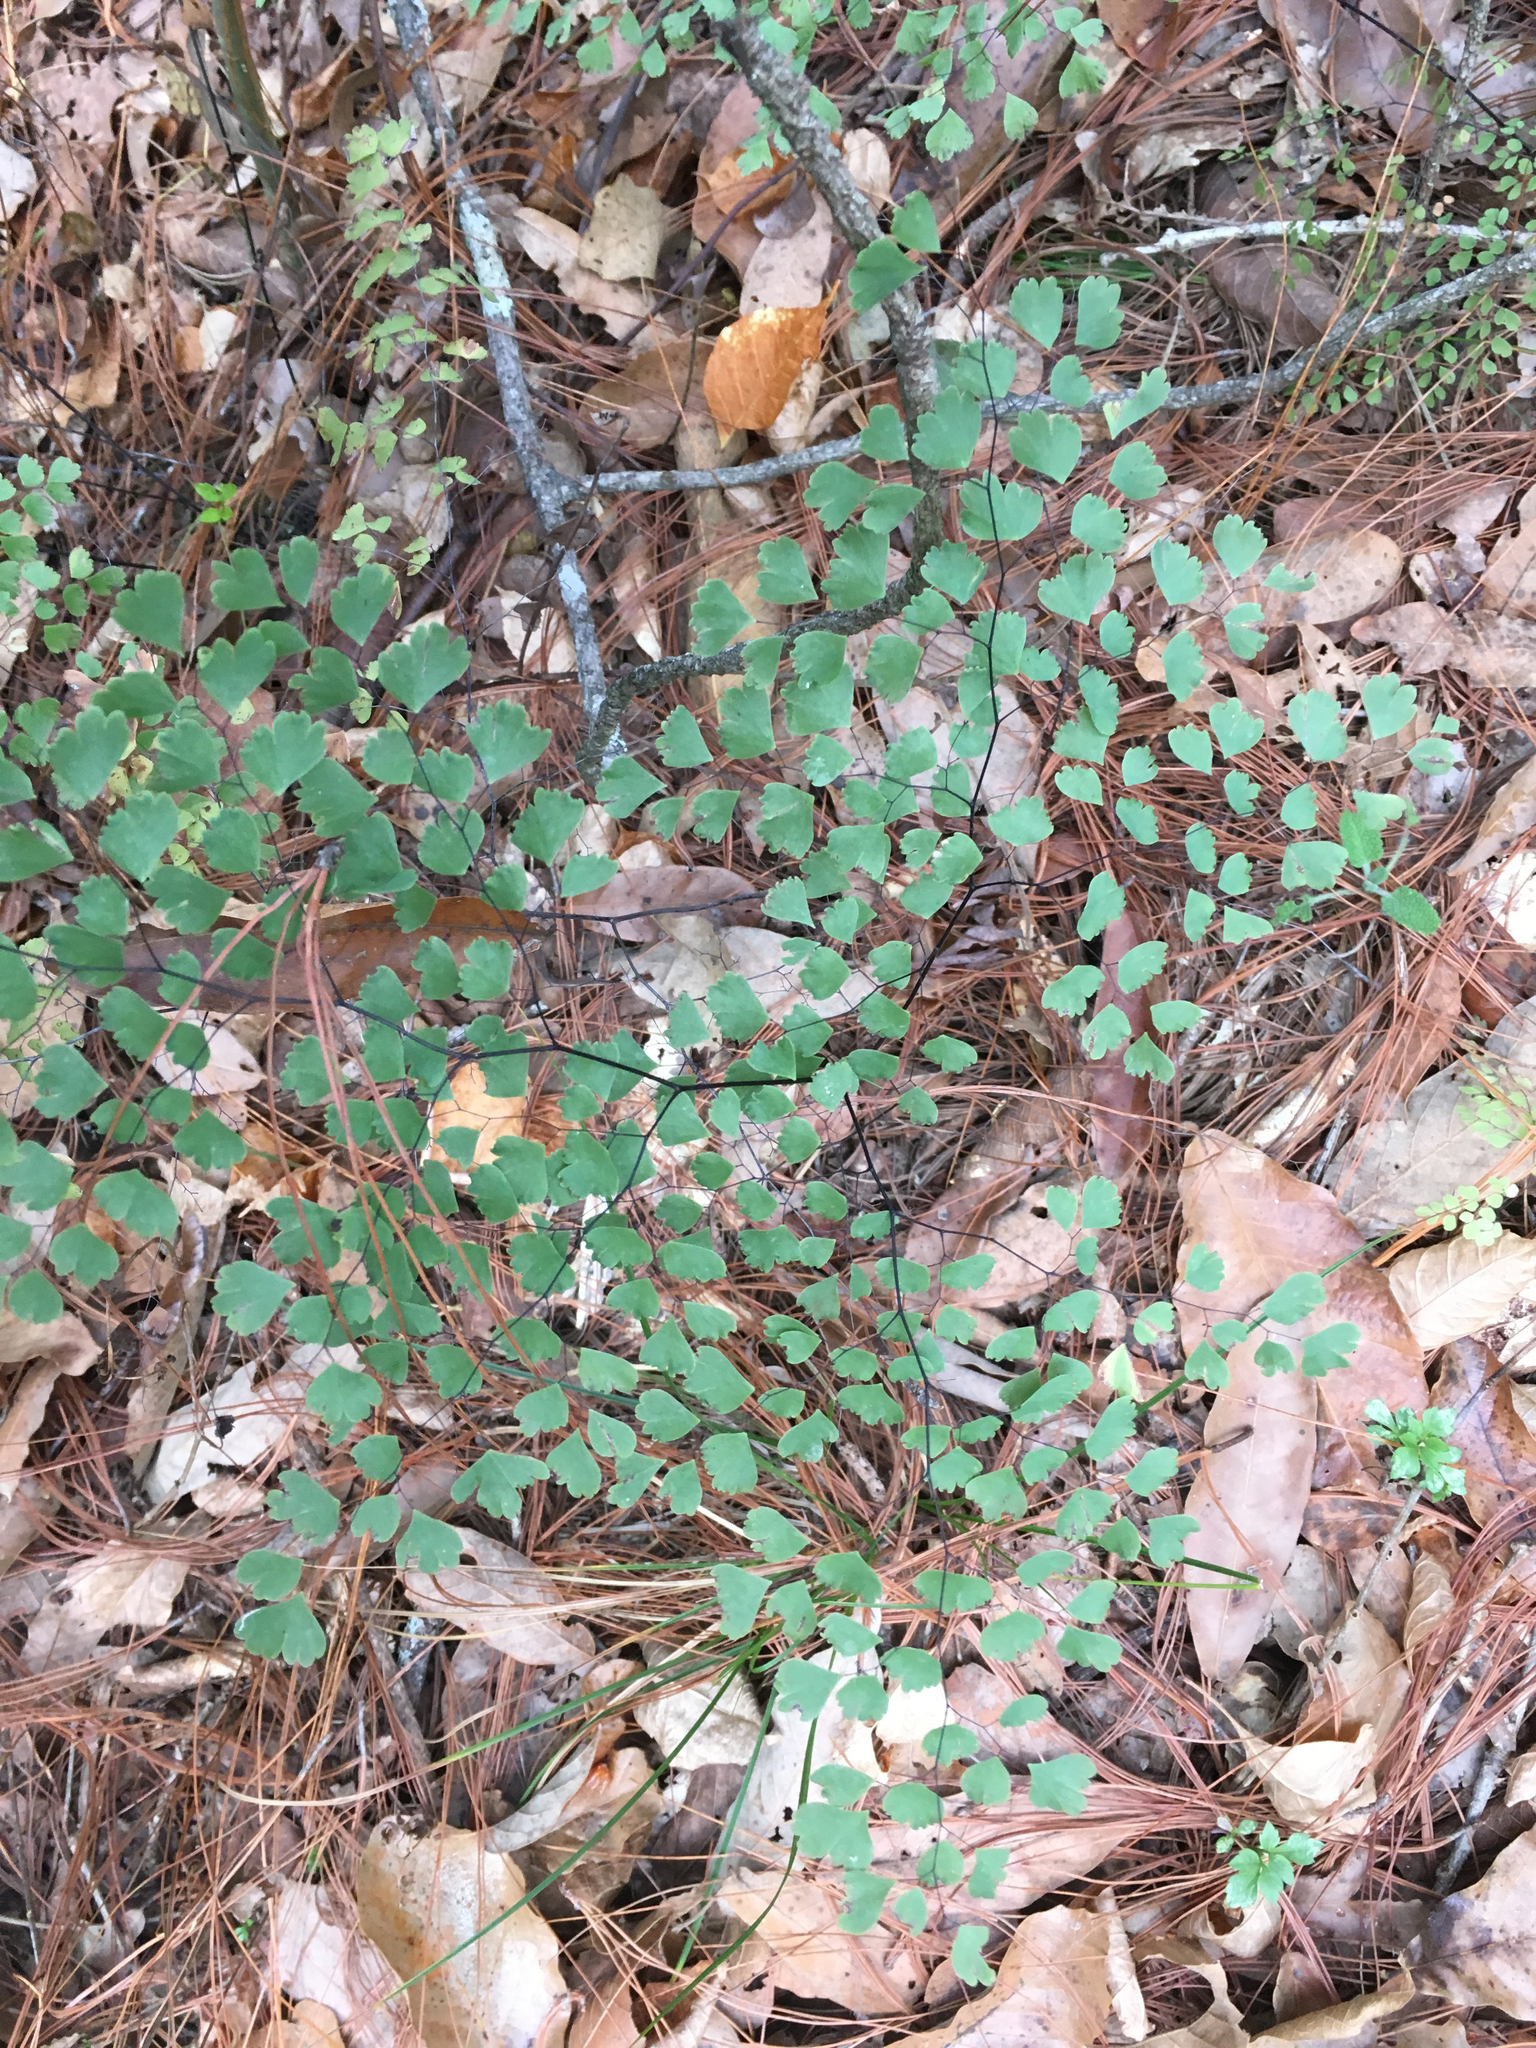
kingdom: Plantae
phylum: Tracheophyta
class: Polypodiopsida
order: Polypodiales
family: Pteridaceae
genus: Adiantum
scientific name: Adiantum andicola
